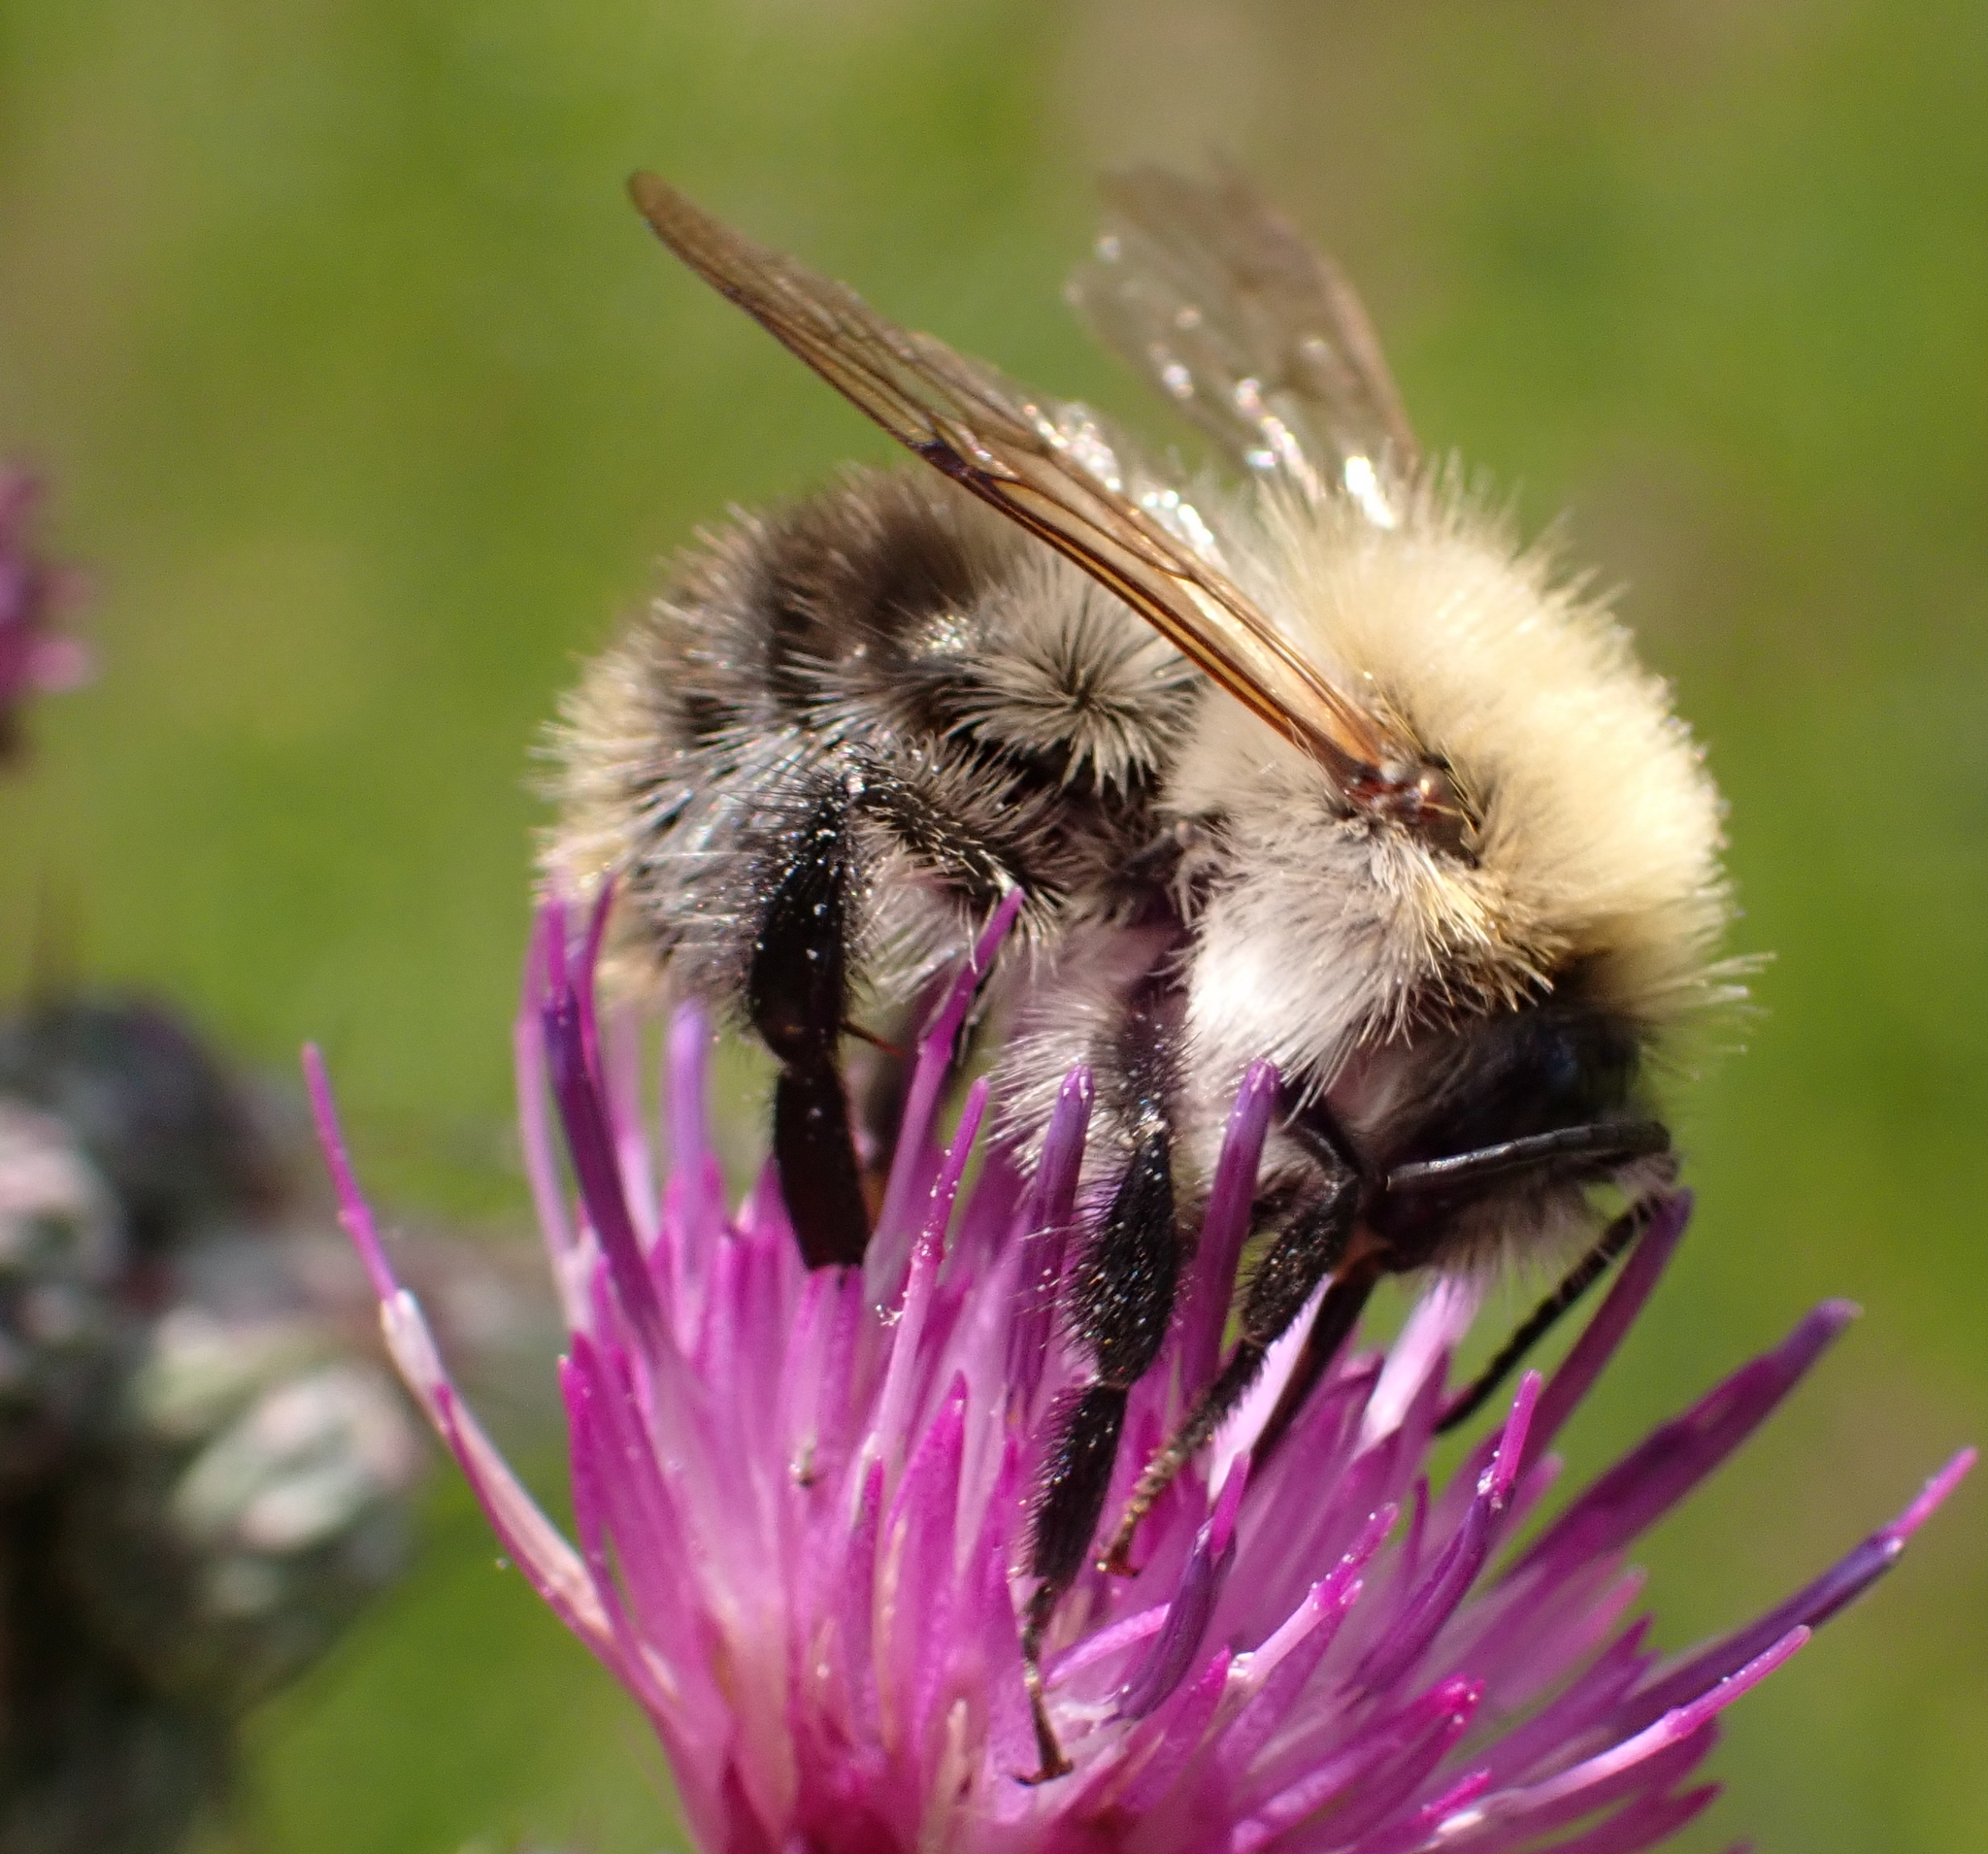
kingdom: Animalia
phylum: Arthropoda
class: Insecta
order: Hymenoptera
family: Apidae
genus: Bombus
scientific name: Bombus pascuorum
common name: Common carder bee
